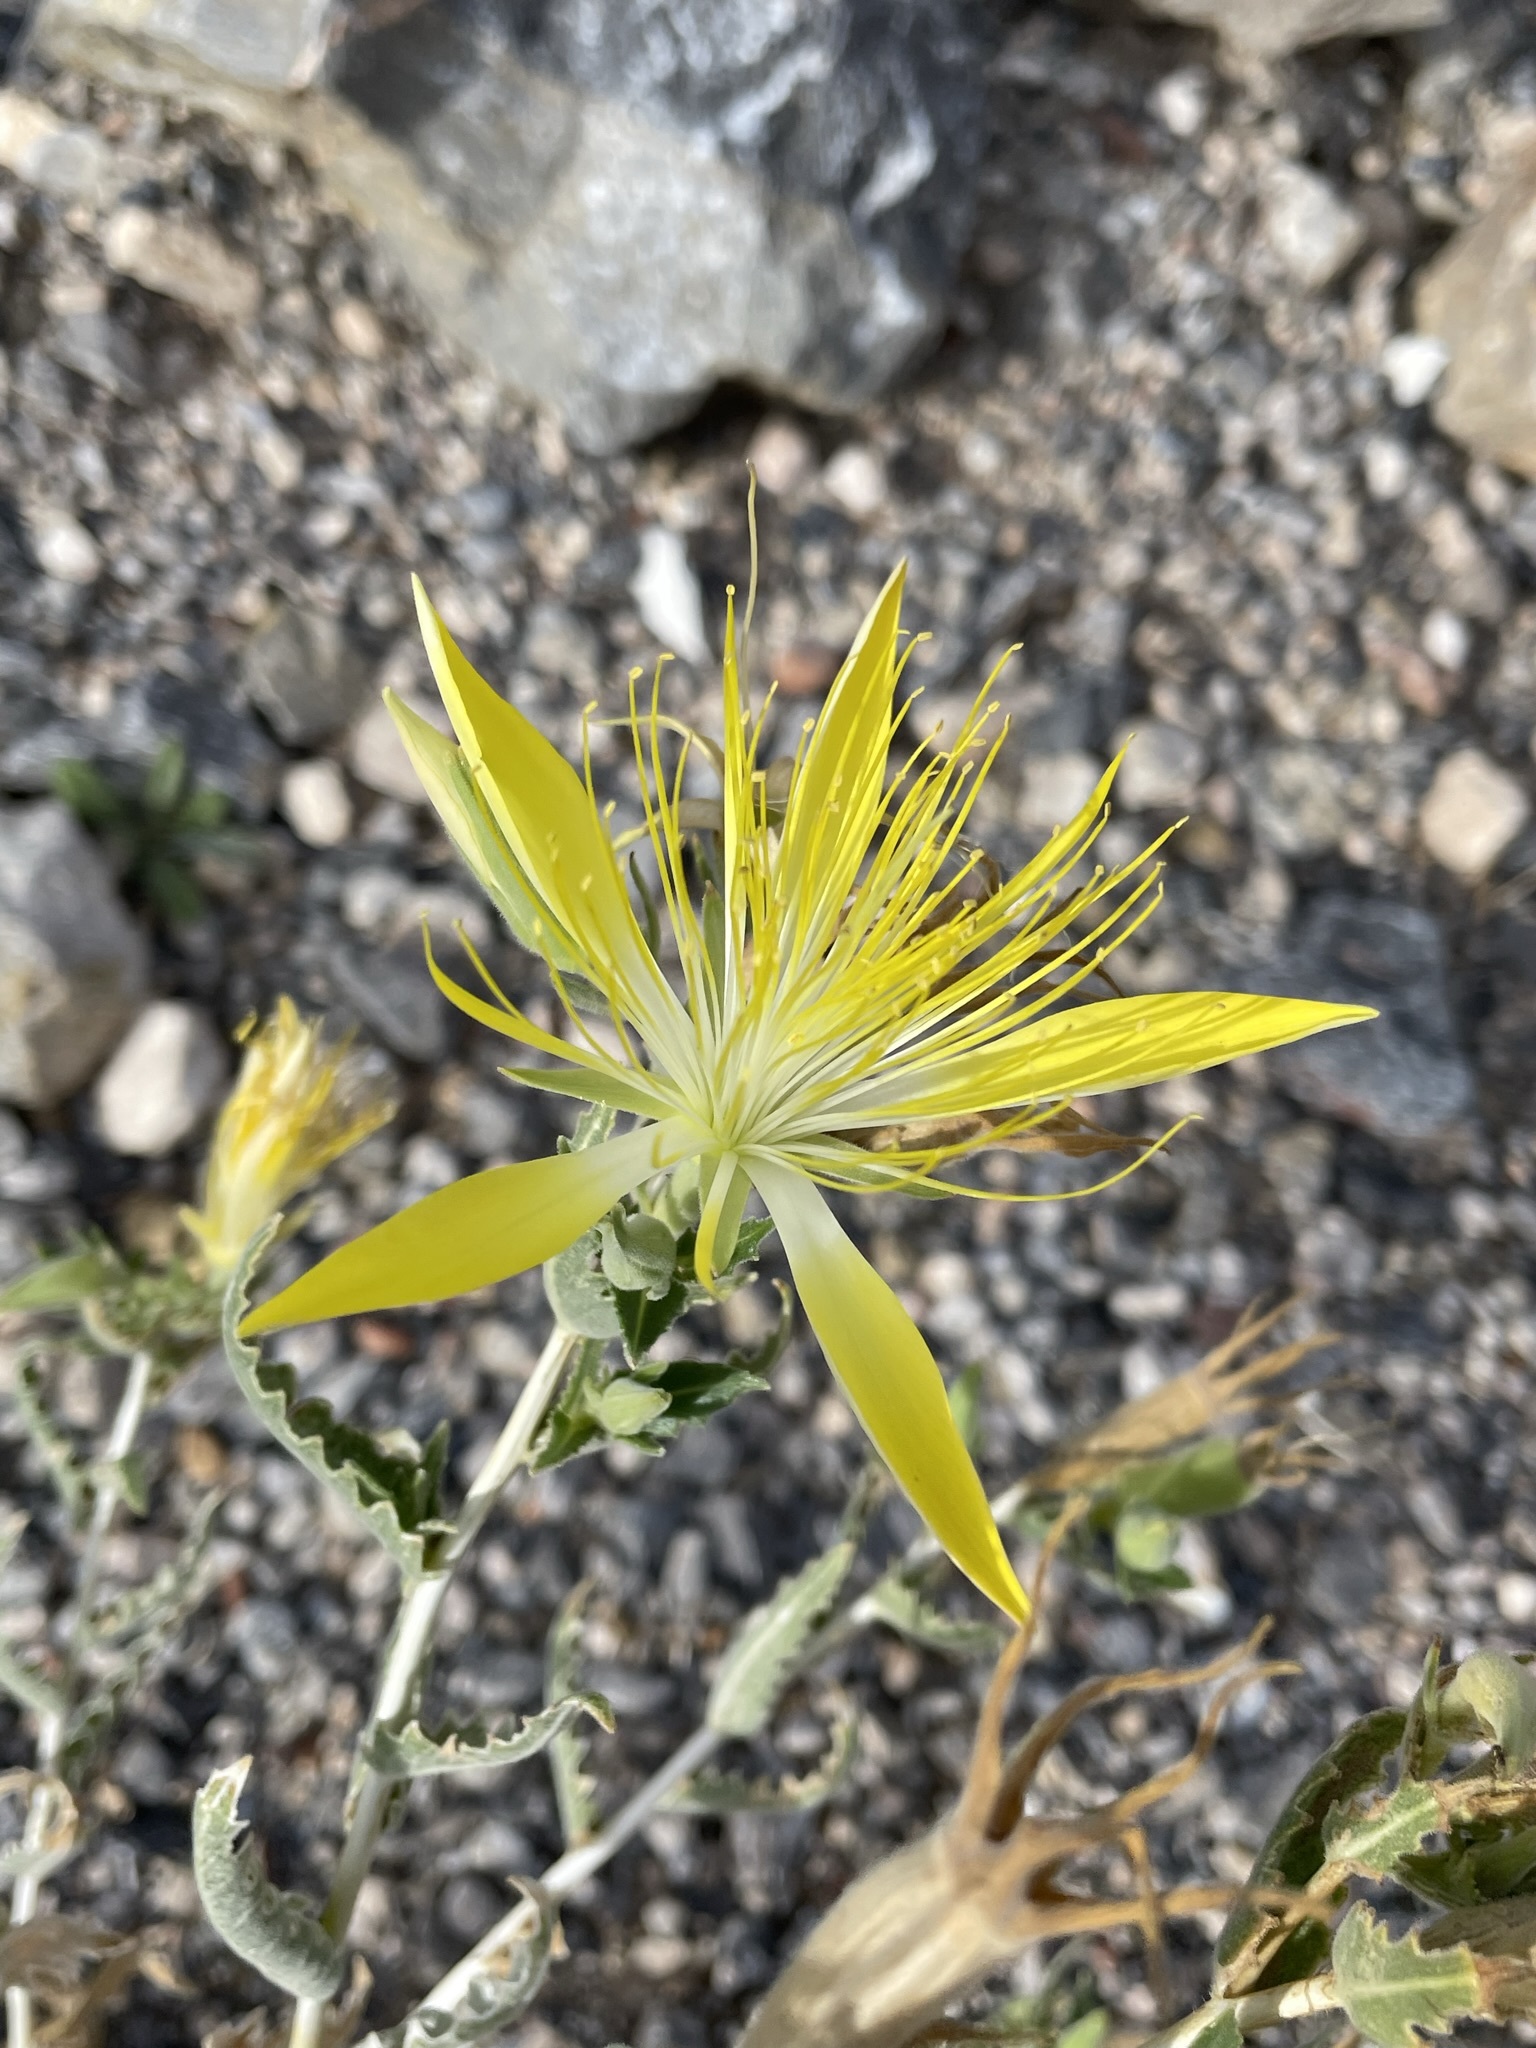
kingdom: Plantae
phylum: Tracheophyta
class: Magnoliopsida
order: Cornales
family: Loasaceae
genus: Mentzelia
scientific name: Mentzelia laevicaulis
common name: Smooth-stem blazingstar
